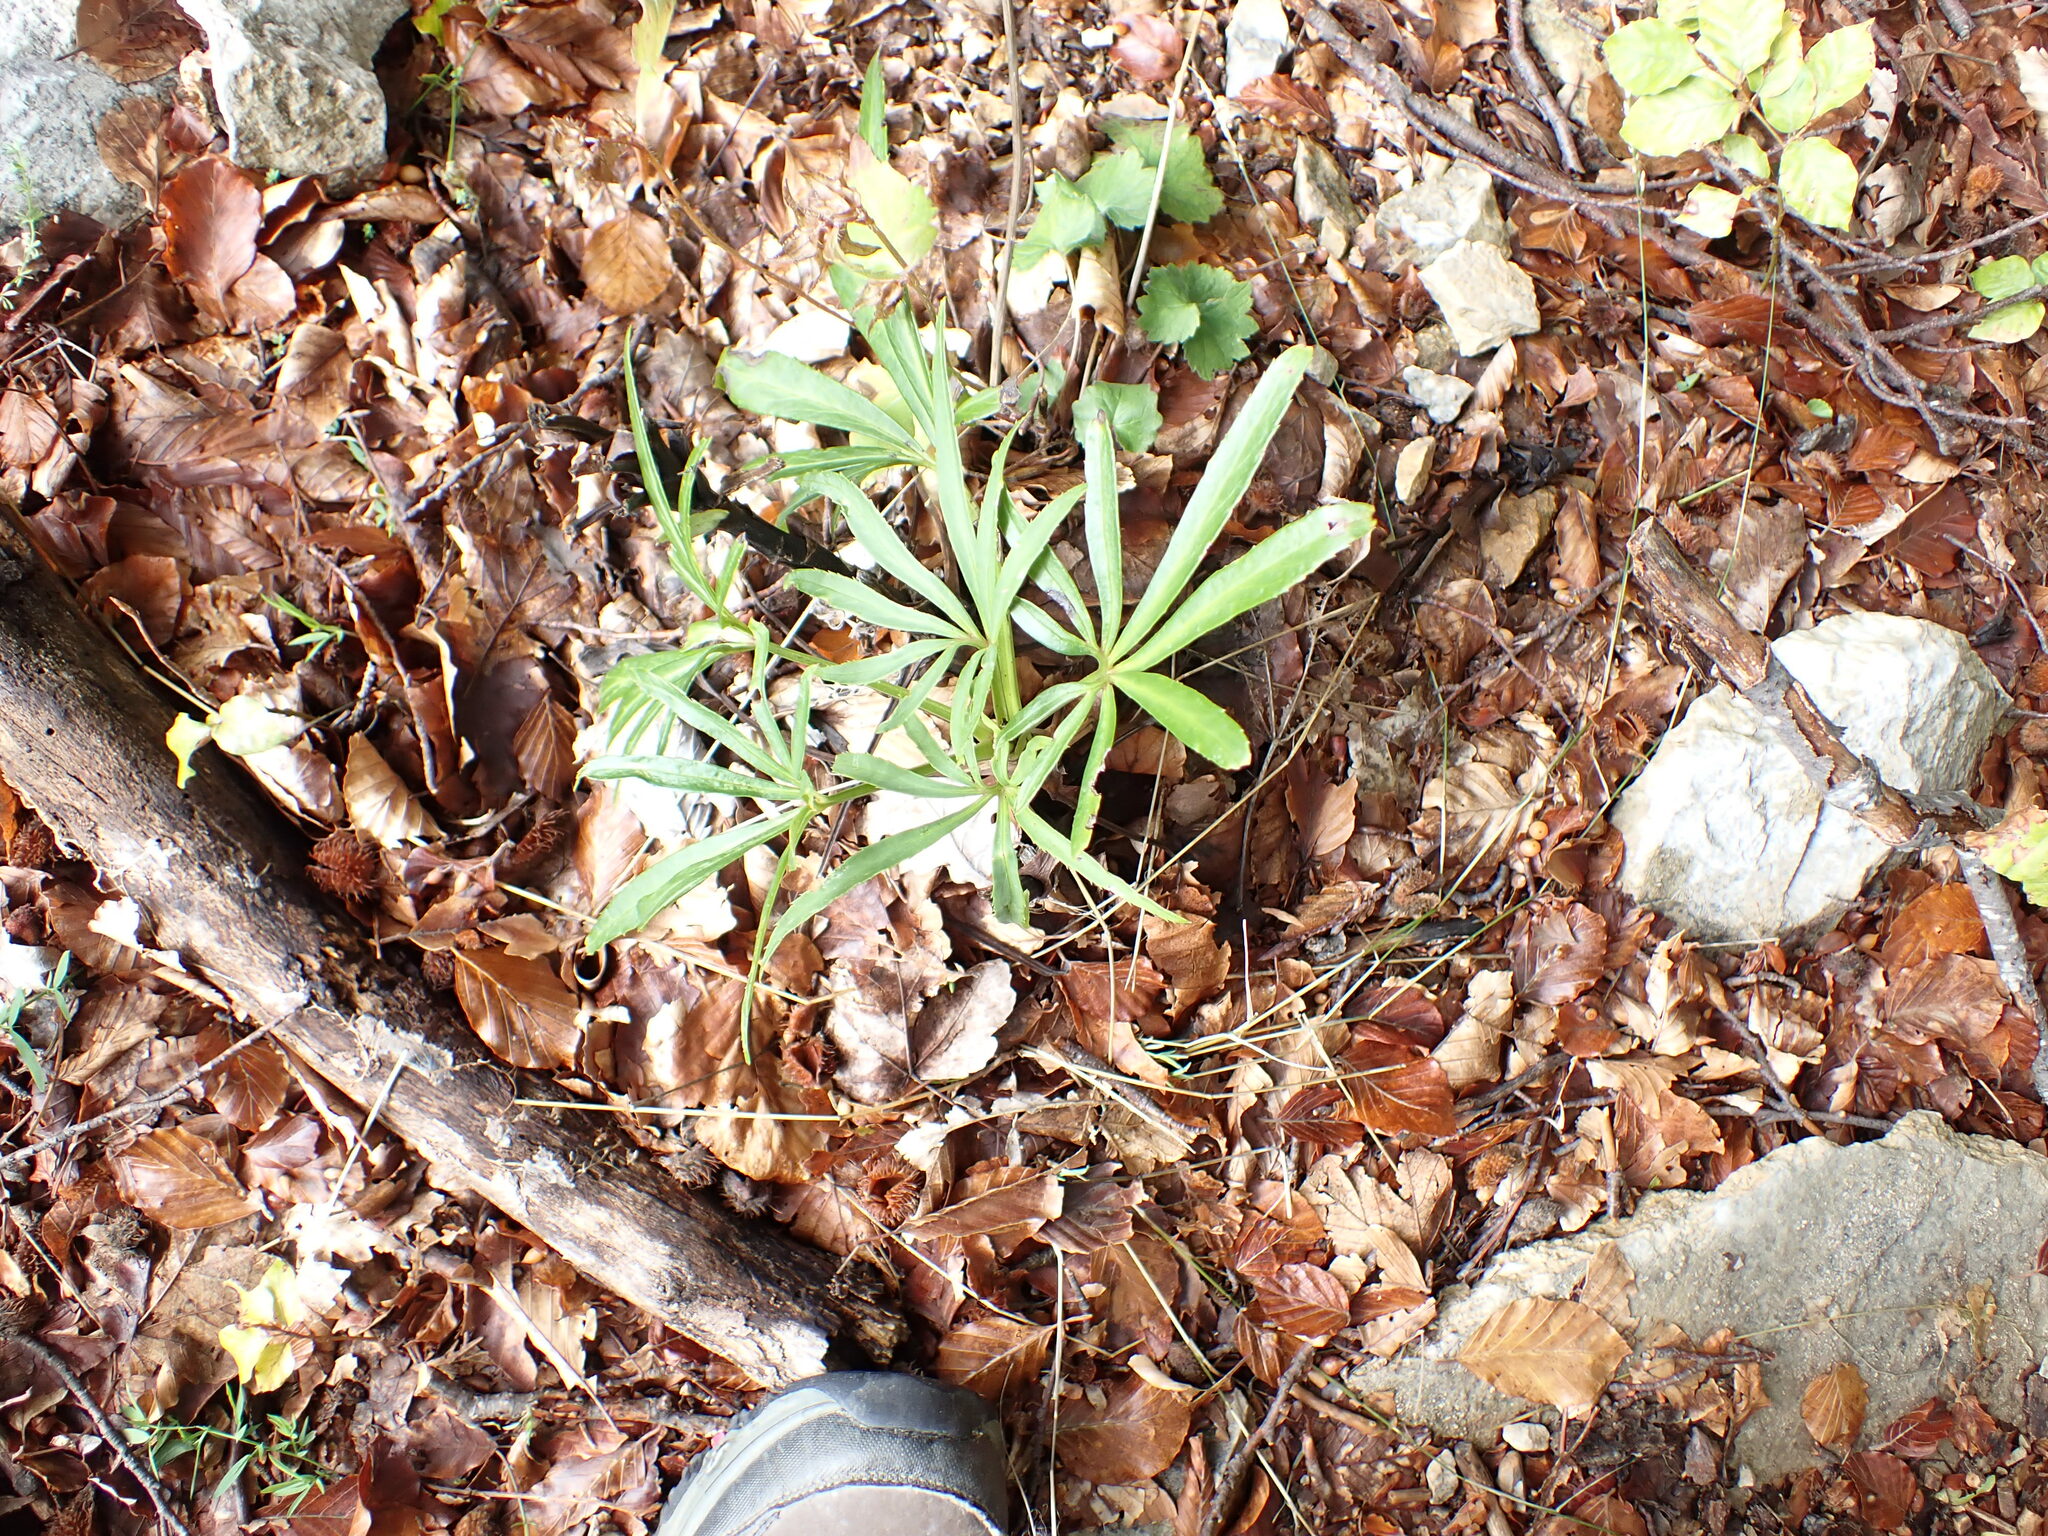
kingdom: Plantae
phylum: Tracheophyta
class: Magnoliopsida
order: Ranunculales
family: Ranunculaceae
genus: Helleborus
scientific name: Helleborus foetidus
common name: Stinking hellebore
